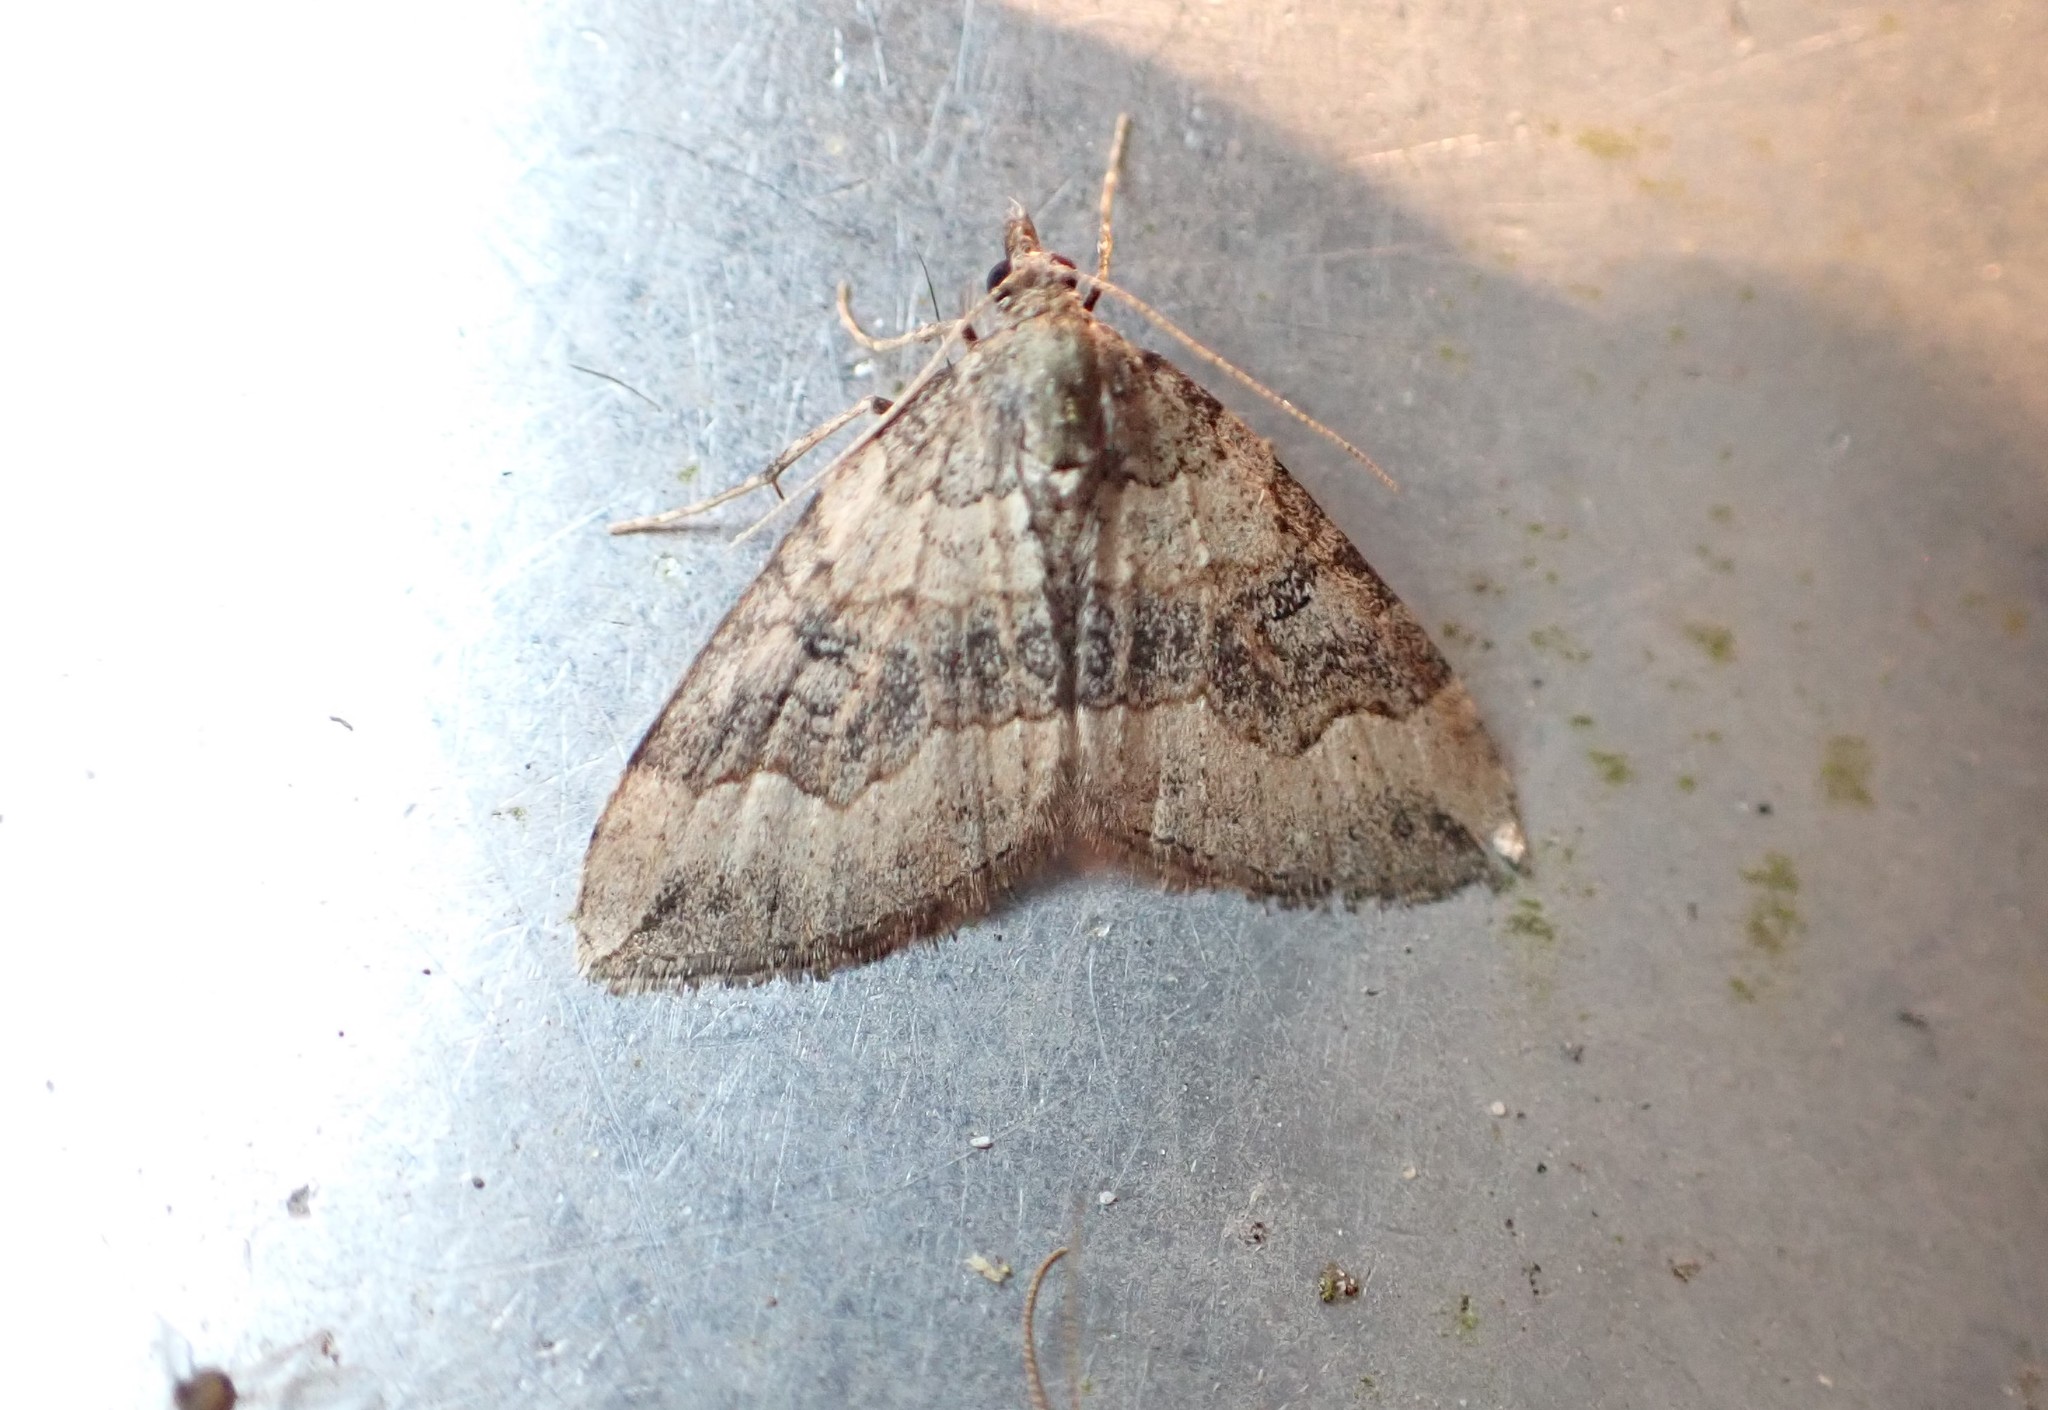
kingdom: Animalia
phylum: Arthropoda
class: Insecta
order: Lepidoptera
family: Geometridae
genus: Epyaxa
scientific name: Epyaxa rosearia
